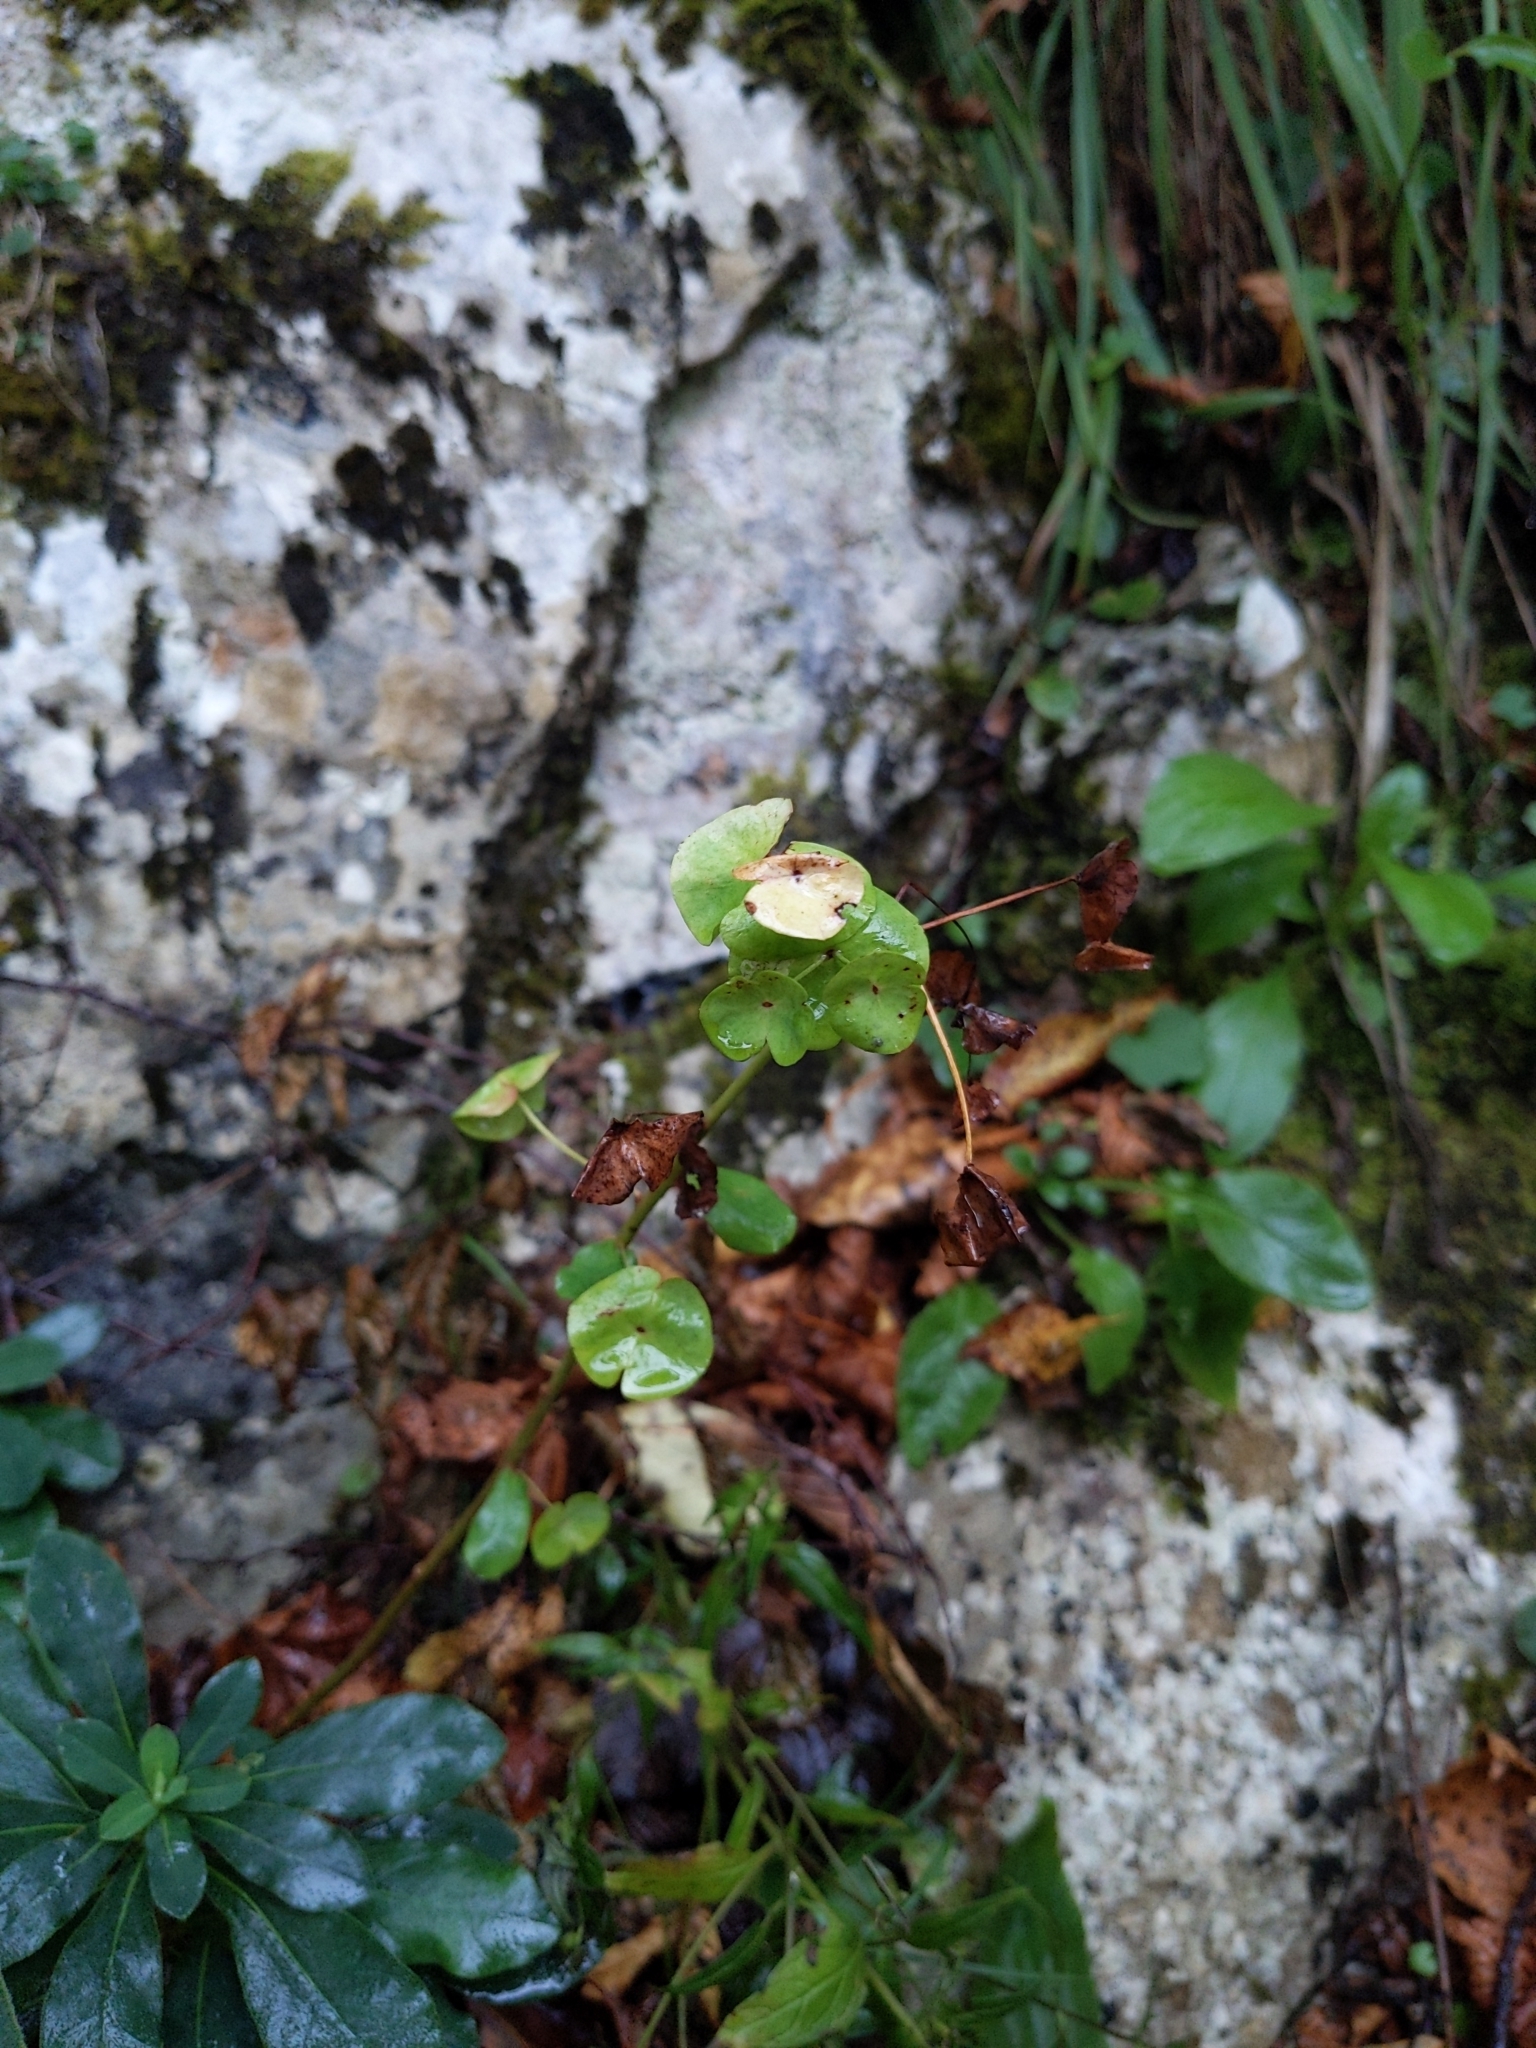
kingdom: Plantae
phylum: Tracheophyta
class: Magnoliopsida
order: Malpighiales
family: Euphorbiaceae
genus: Euphorbia
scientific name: Euphorbia amygdaloides
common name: Wood spurge
